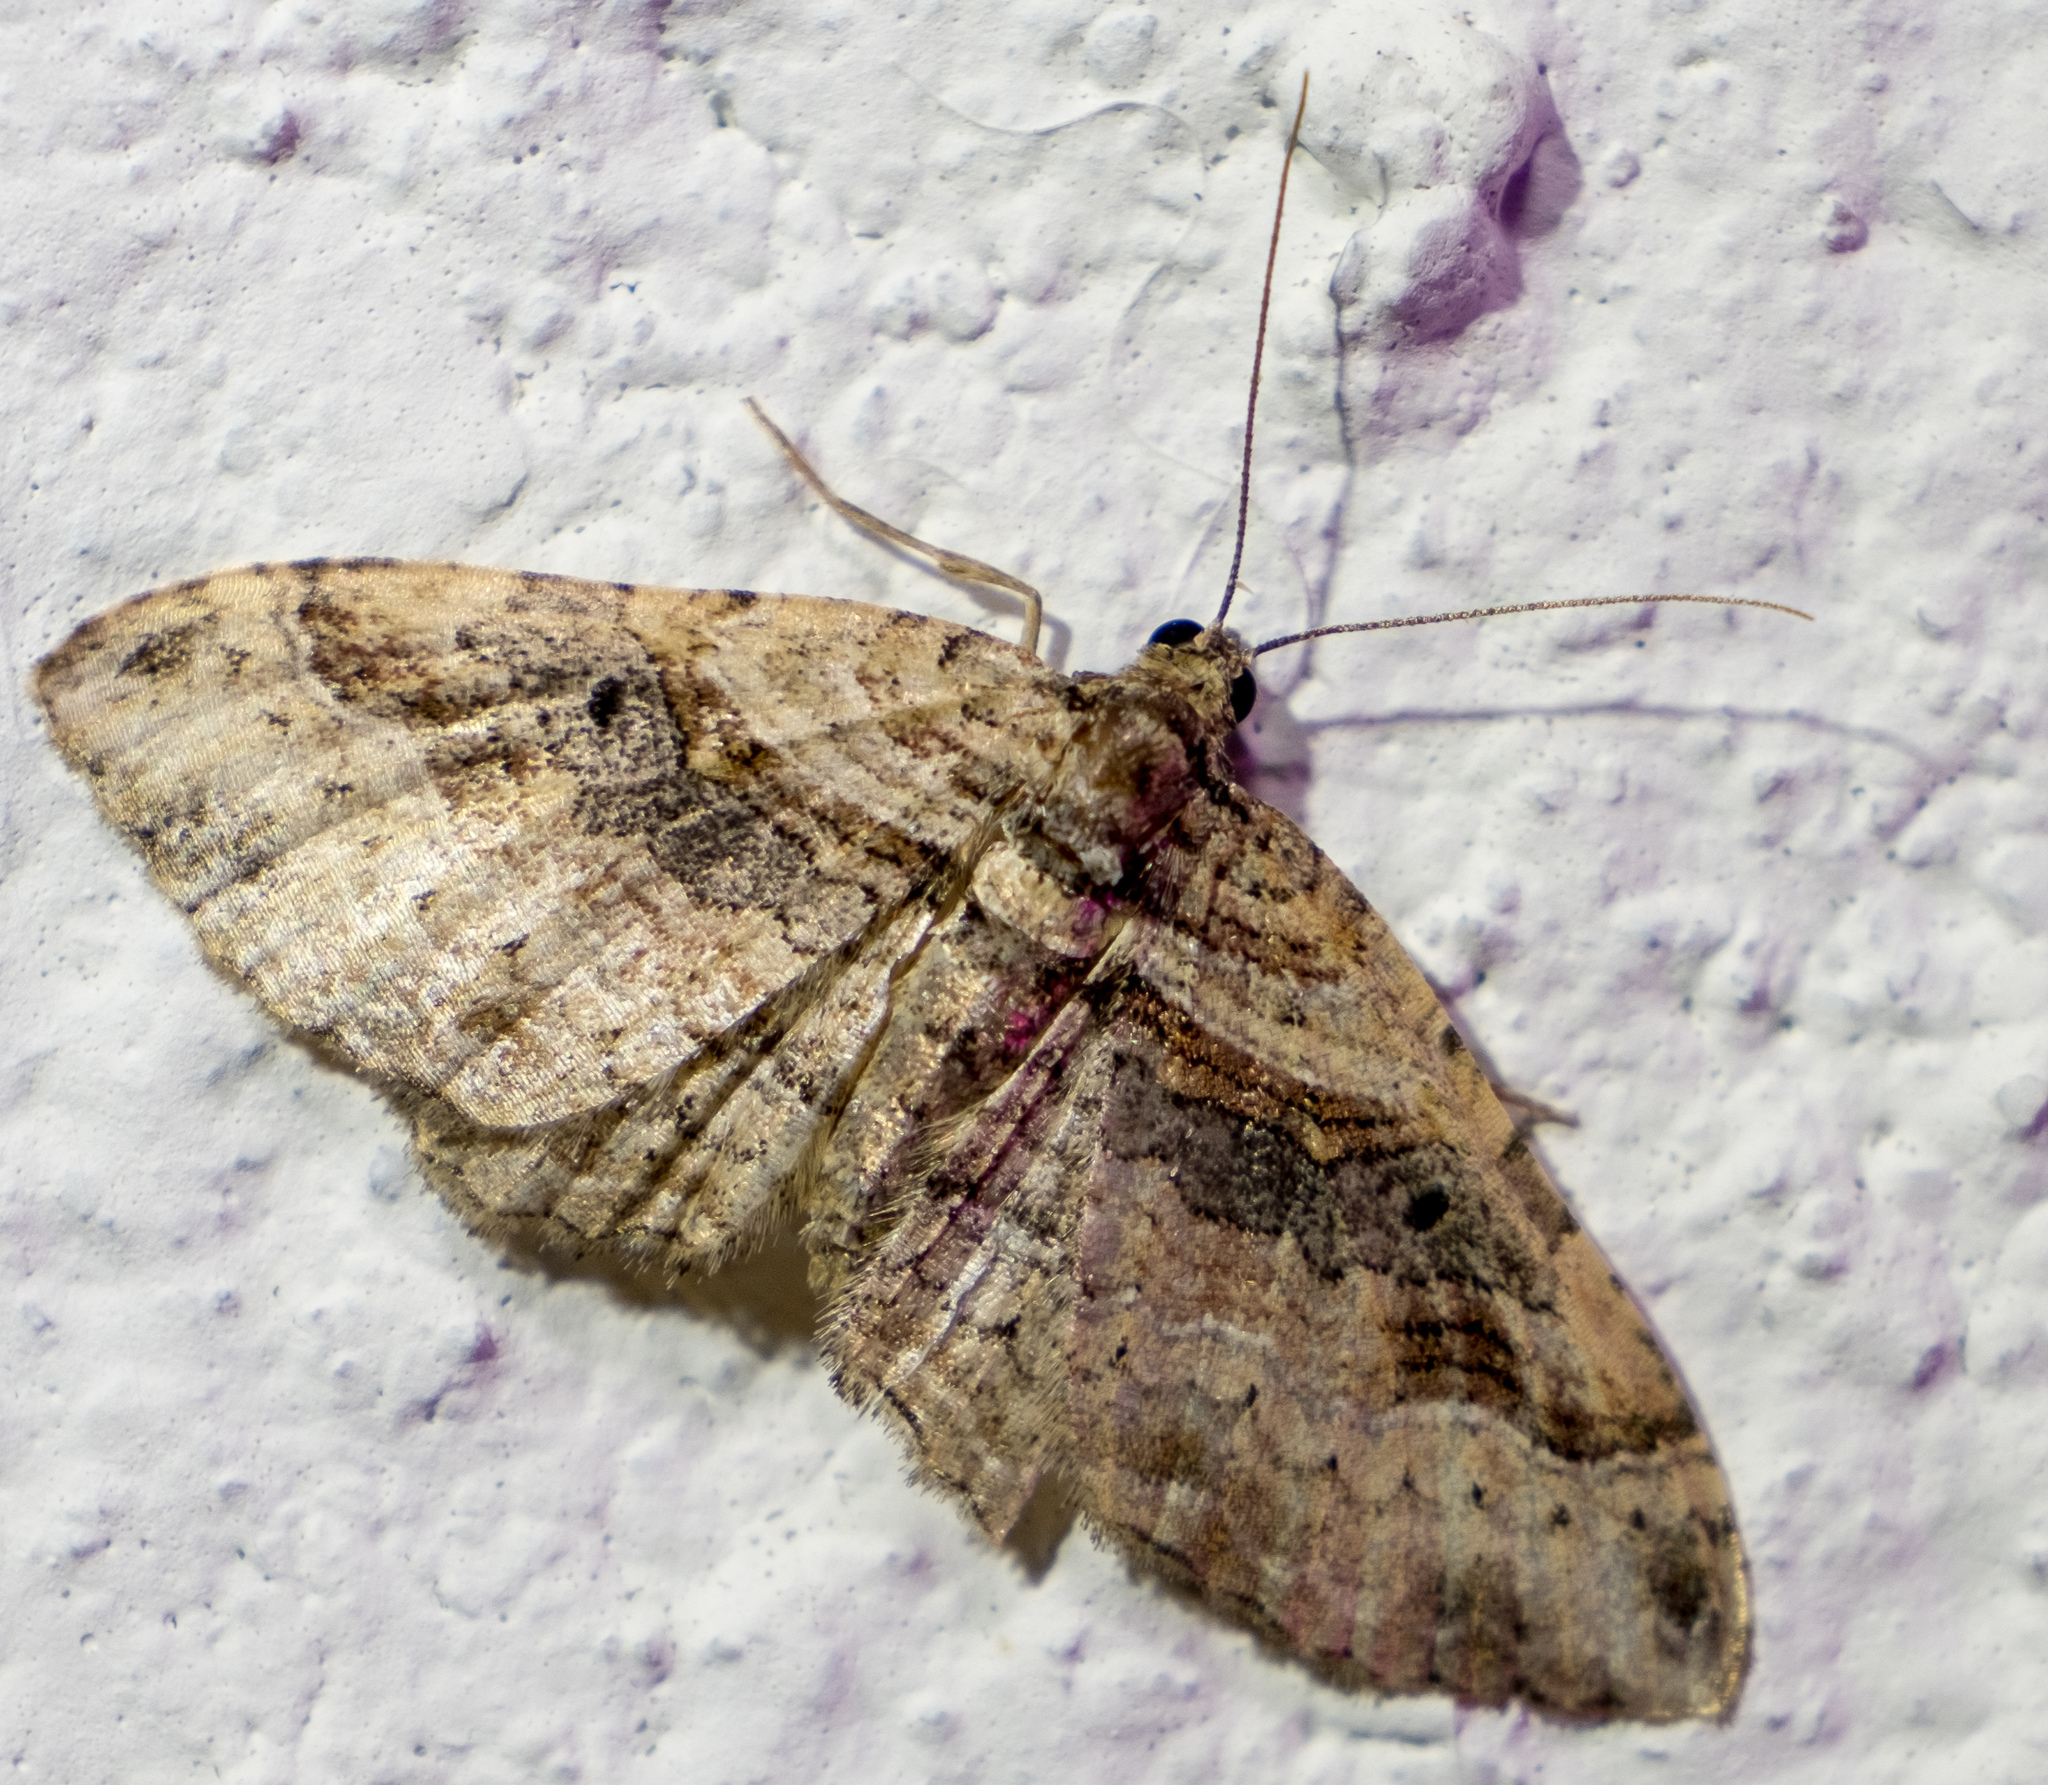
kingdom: Animalia
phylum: Arthropoda
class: Insecta
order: Lepidoptera
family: Geometridae
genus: Costaconvexa
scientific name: Costaconvexa centrostrigaria
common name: Bent-line carpet
